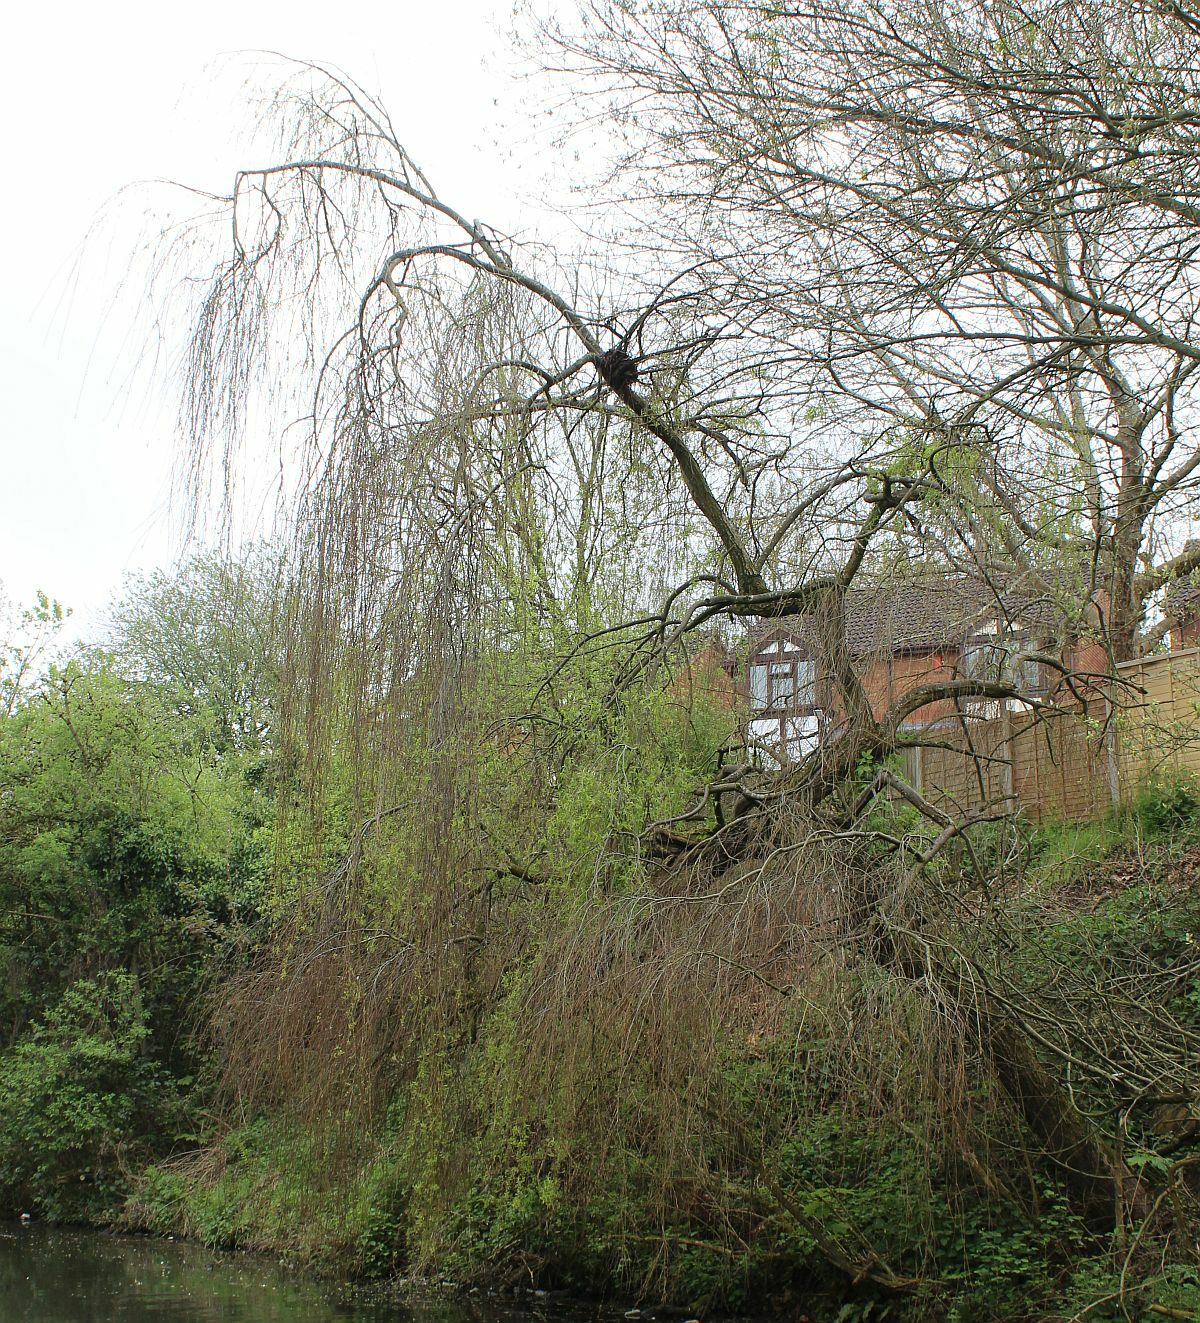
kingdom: Plantae
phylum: Tracheophyta
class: Magnoliopsida
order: Malpighiales
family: Salicaceae
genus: Salix
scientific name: Salix pendulina
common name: Wisconsin weeping willow
